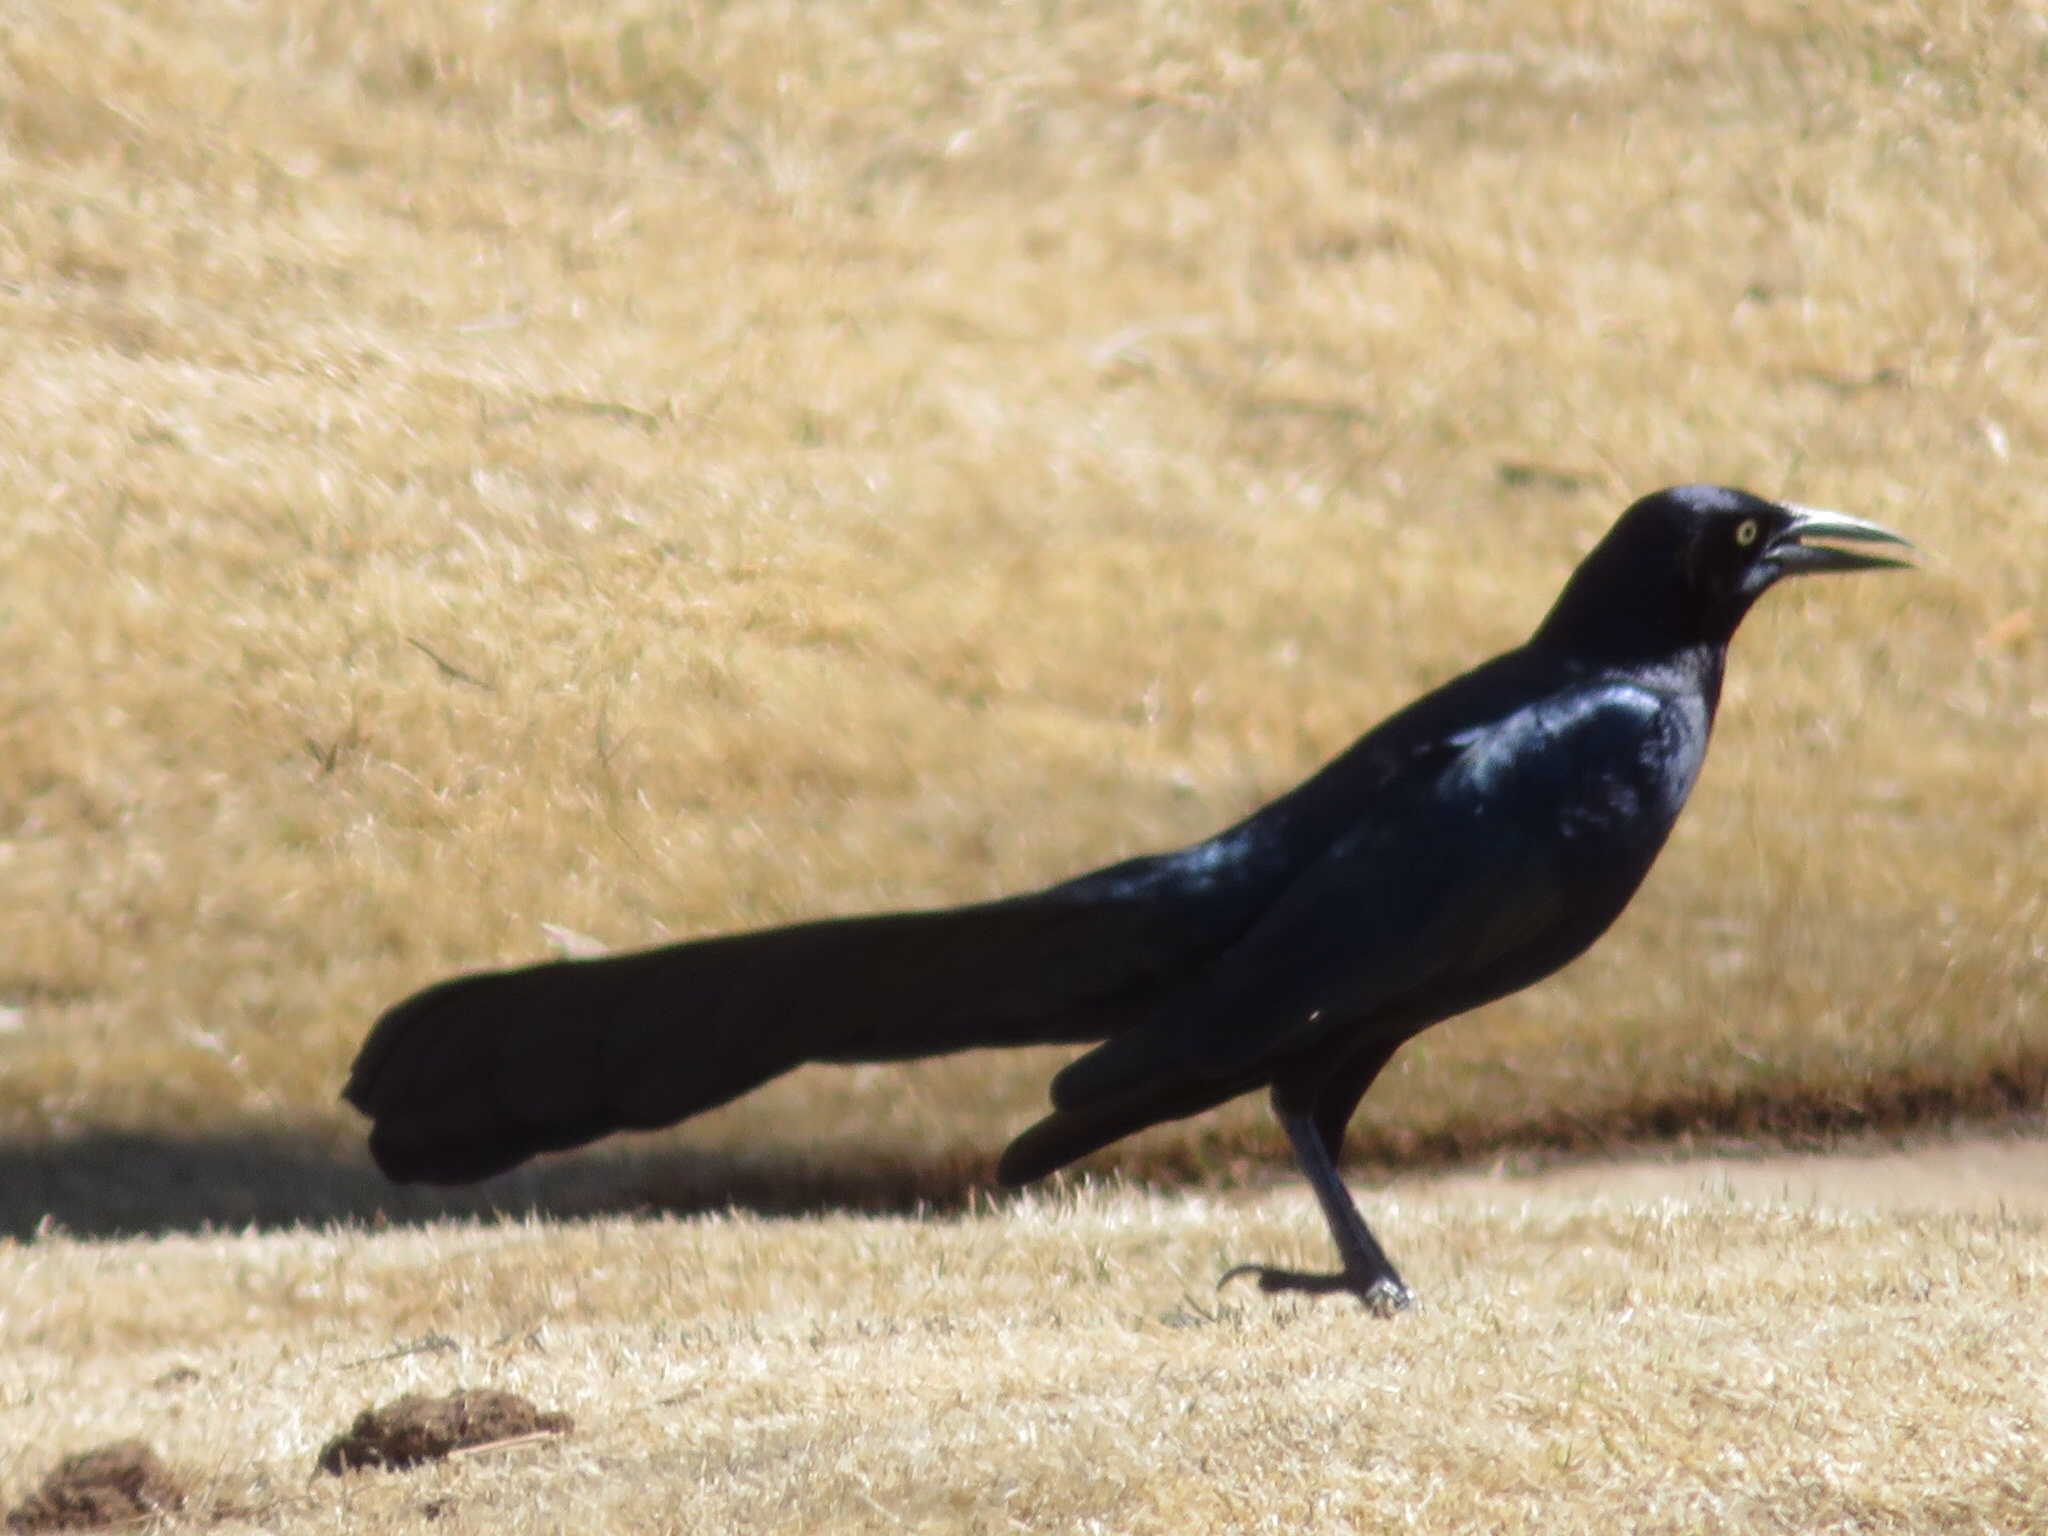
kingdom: Animalia
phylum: Chordata
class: Aves
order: Passeriformes
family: Icteridae
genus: Quiscalus
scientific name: Quiscalus mexicanus
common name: Great-tailed grackle
